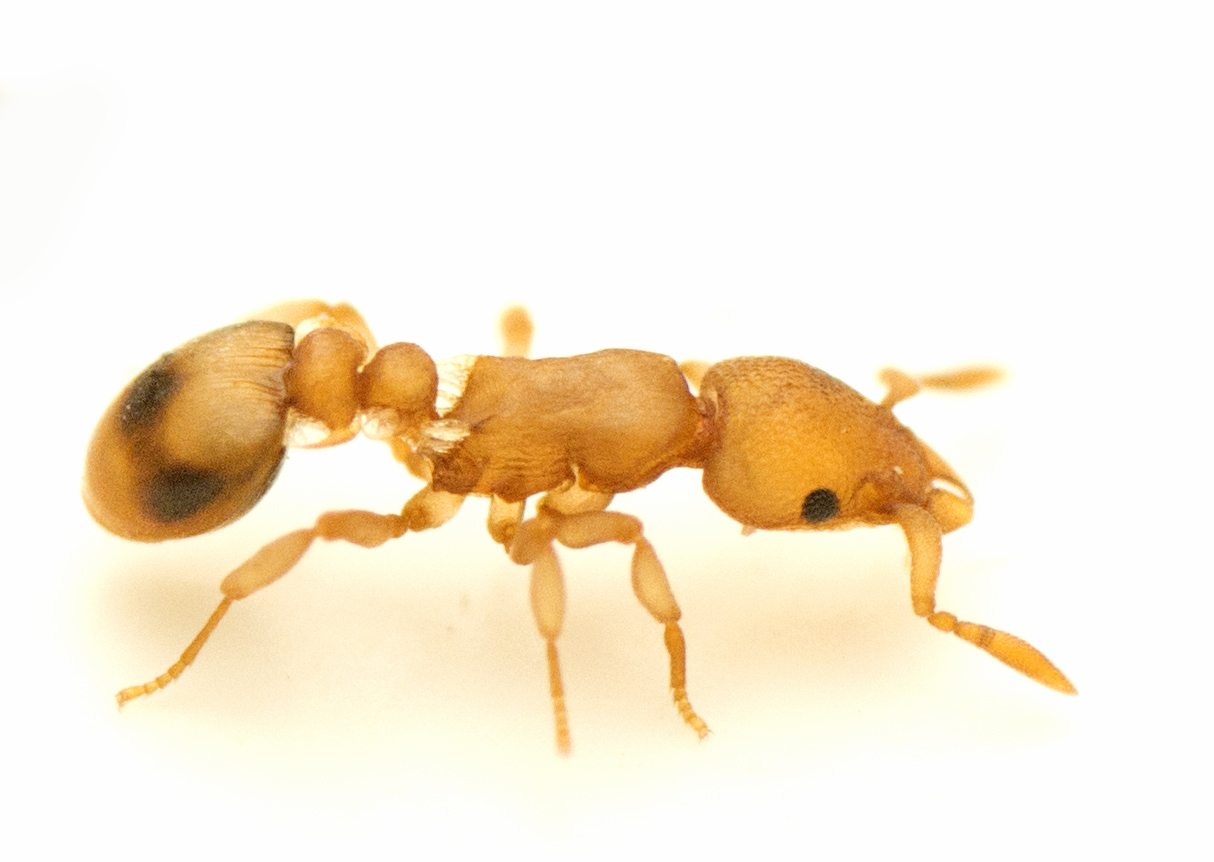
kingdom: Animalia
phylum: Arthropoda
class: Insecta
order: Hymenoptera
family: Formicidae
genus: Colobostruma
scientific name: Colobostruma
